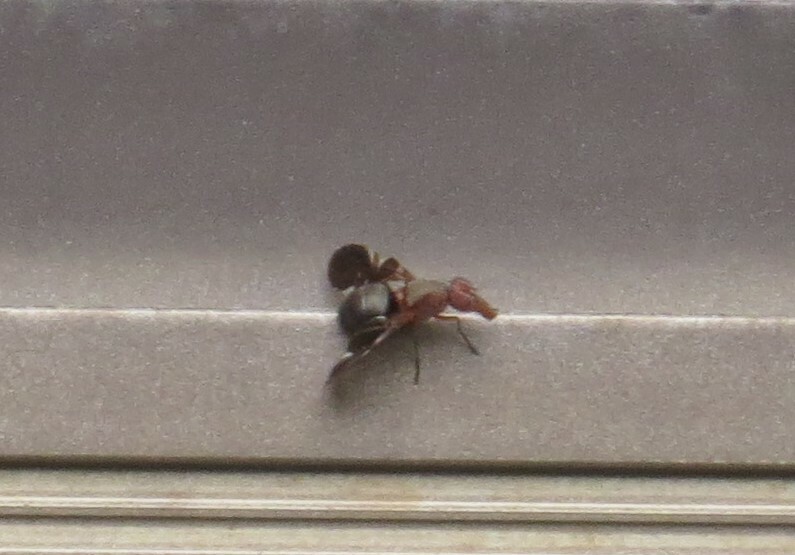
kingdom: Animalia
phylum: Arthropoda
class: Insecta
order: Diptera
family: Ulidiidae
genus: Delphinia
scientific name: Delphinia picta
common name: Common picture-winged fly
